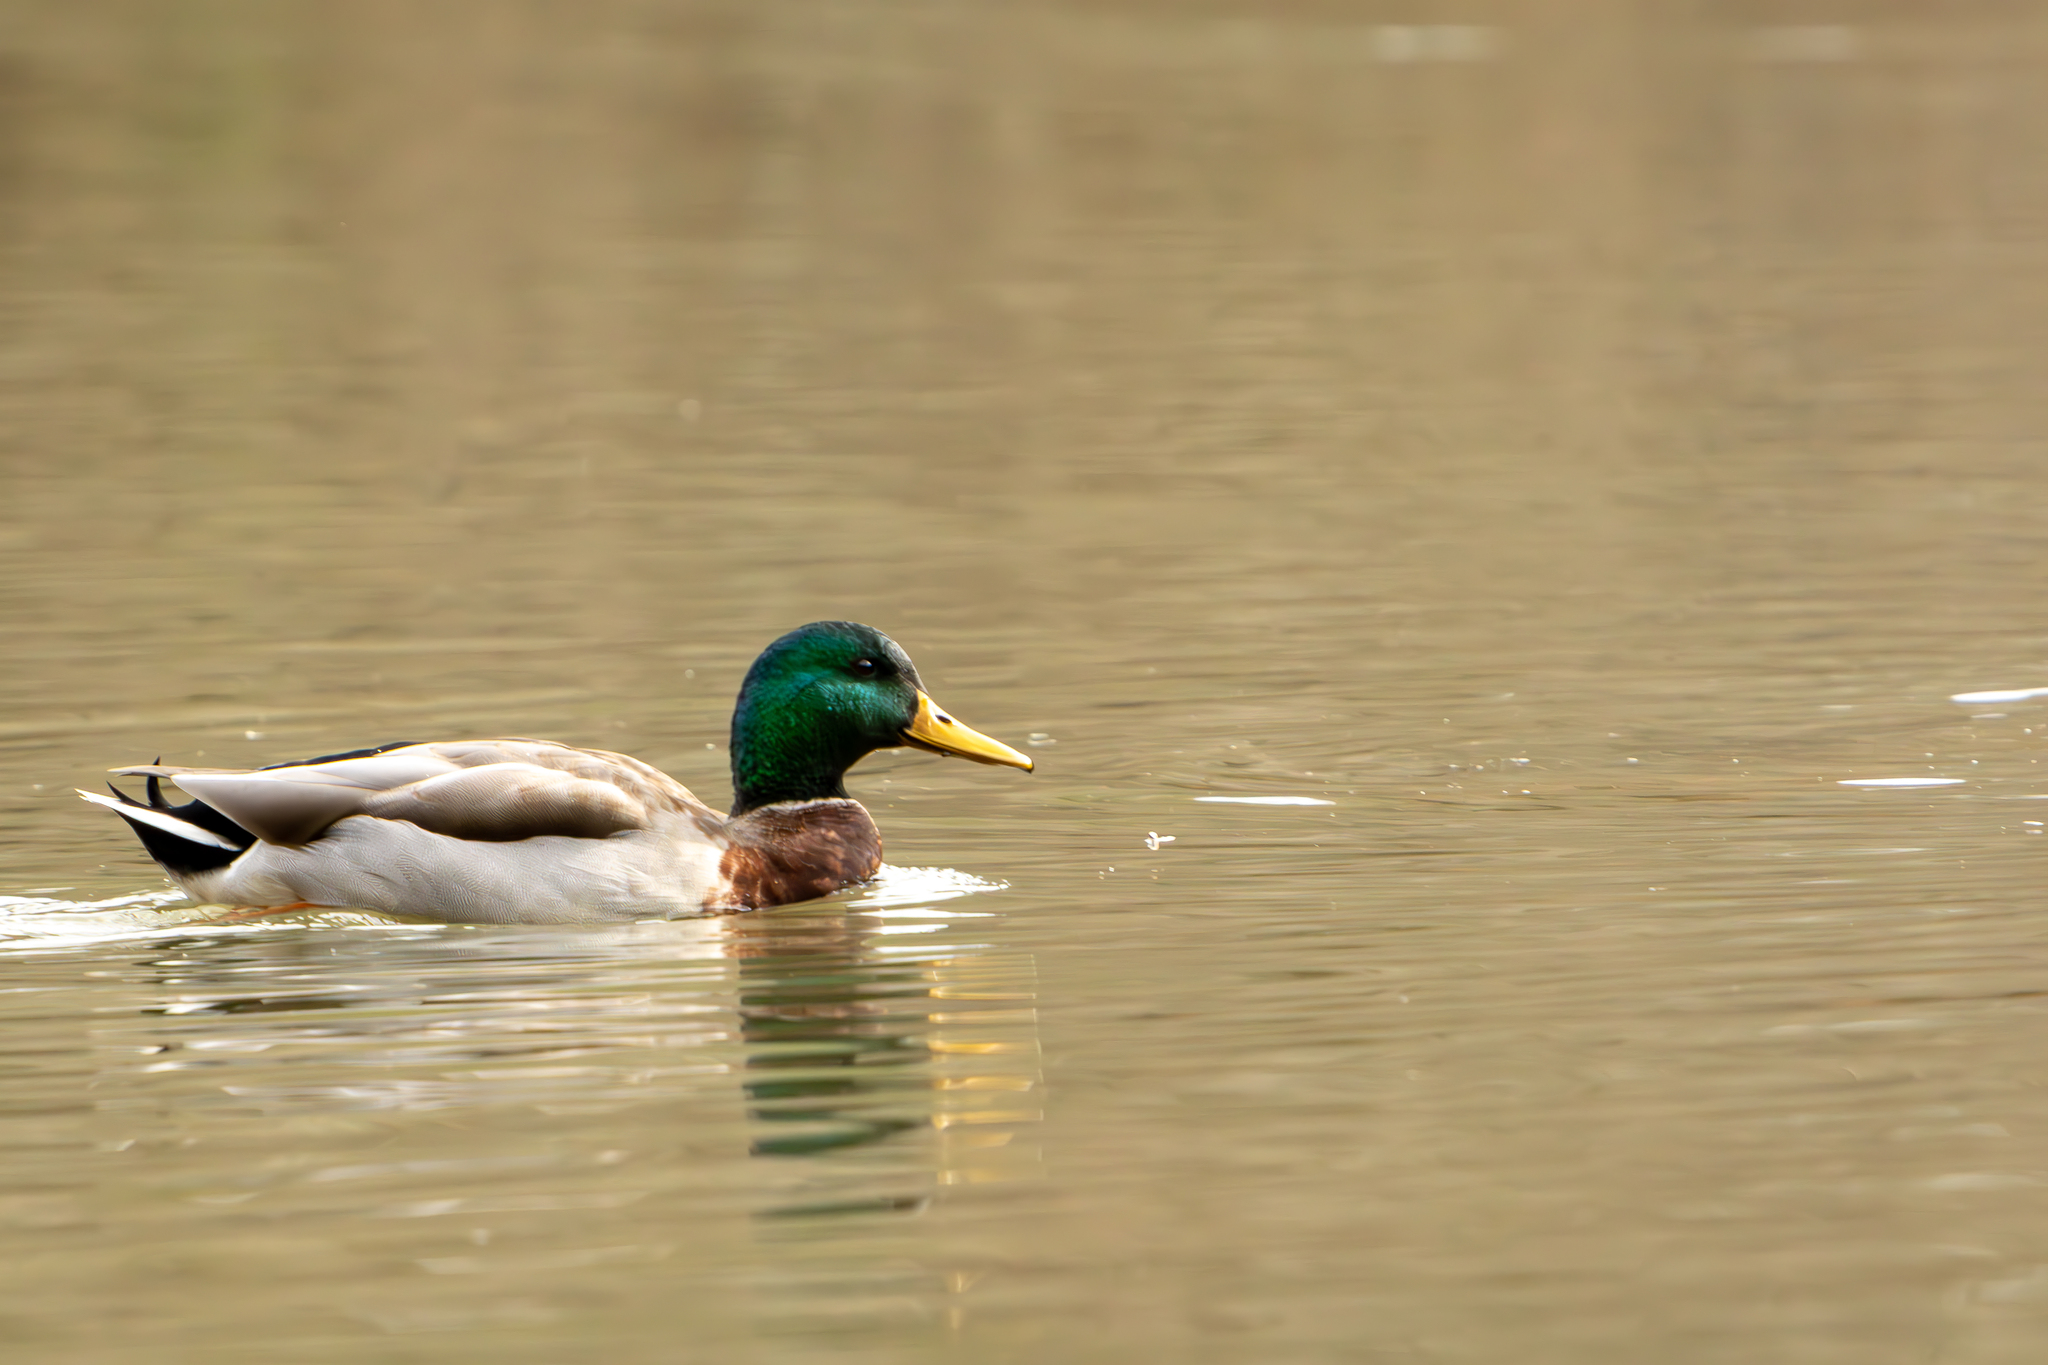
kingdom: Animalia
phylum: Chordata
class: Aves
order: Anseriformes
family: Anatidae
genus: Anas
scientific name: Anas platyrhynchos
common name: Mallard
